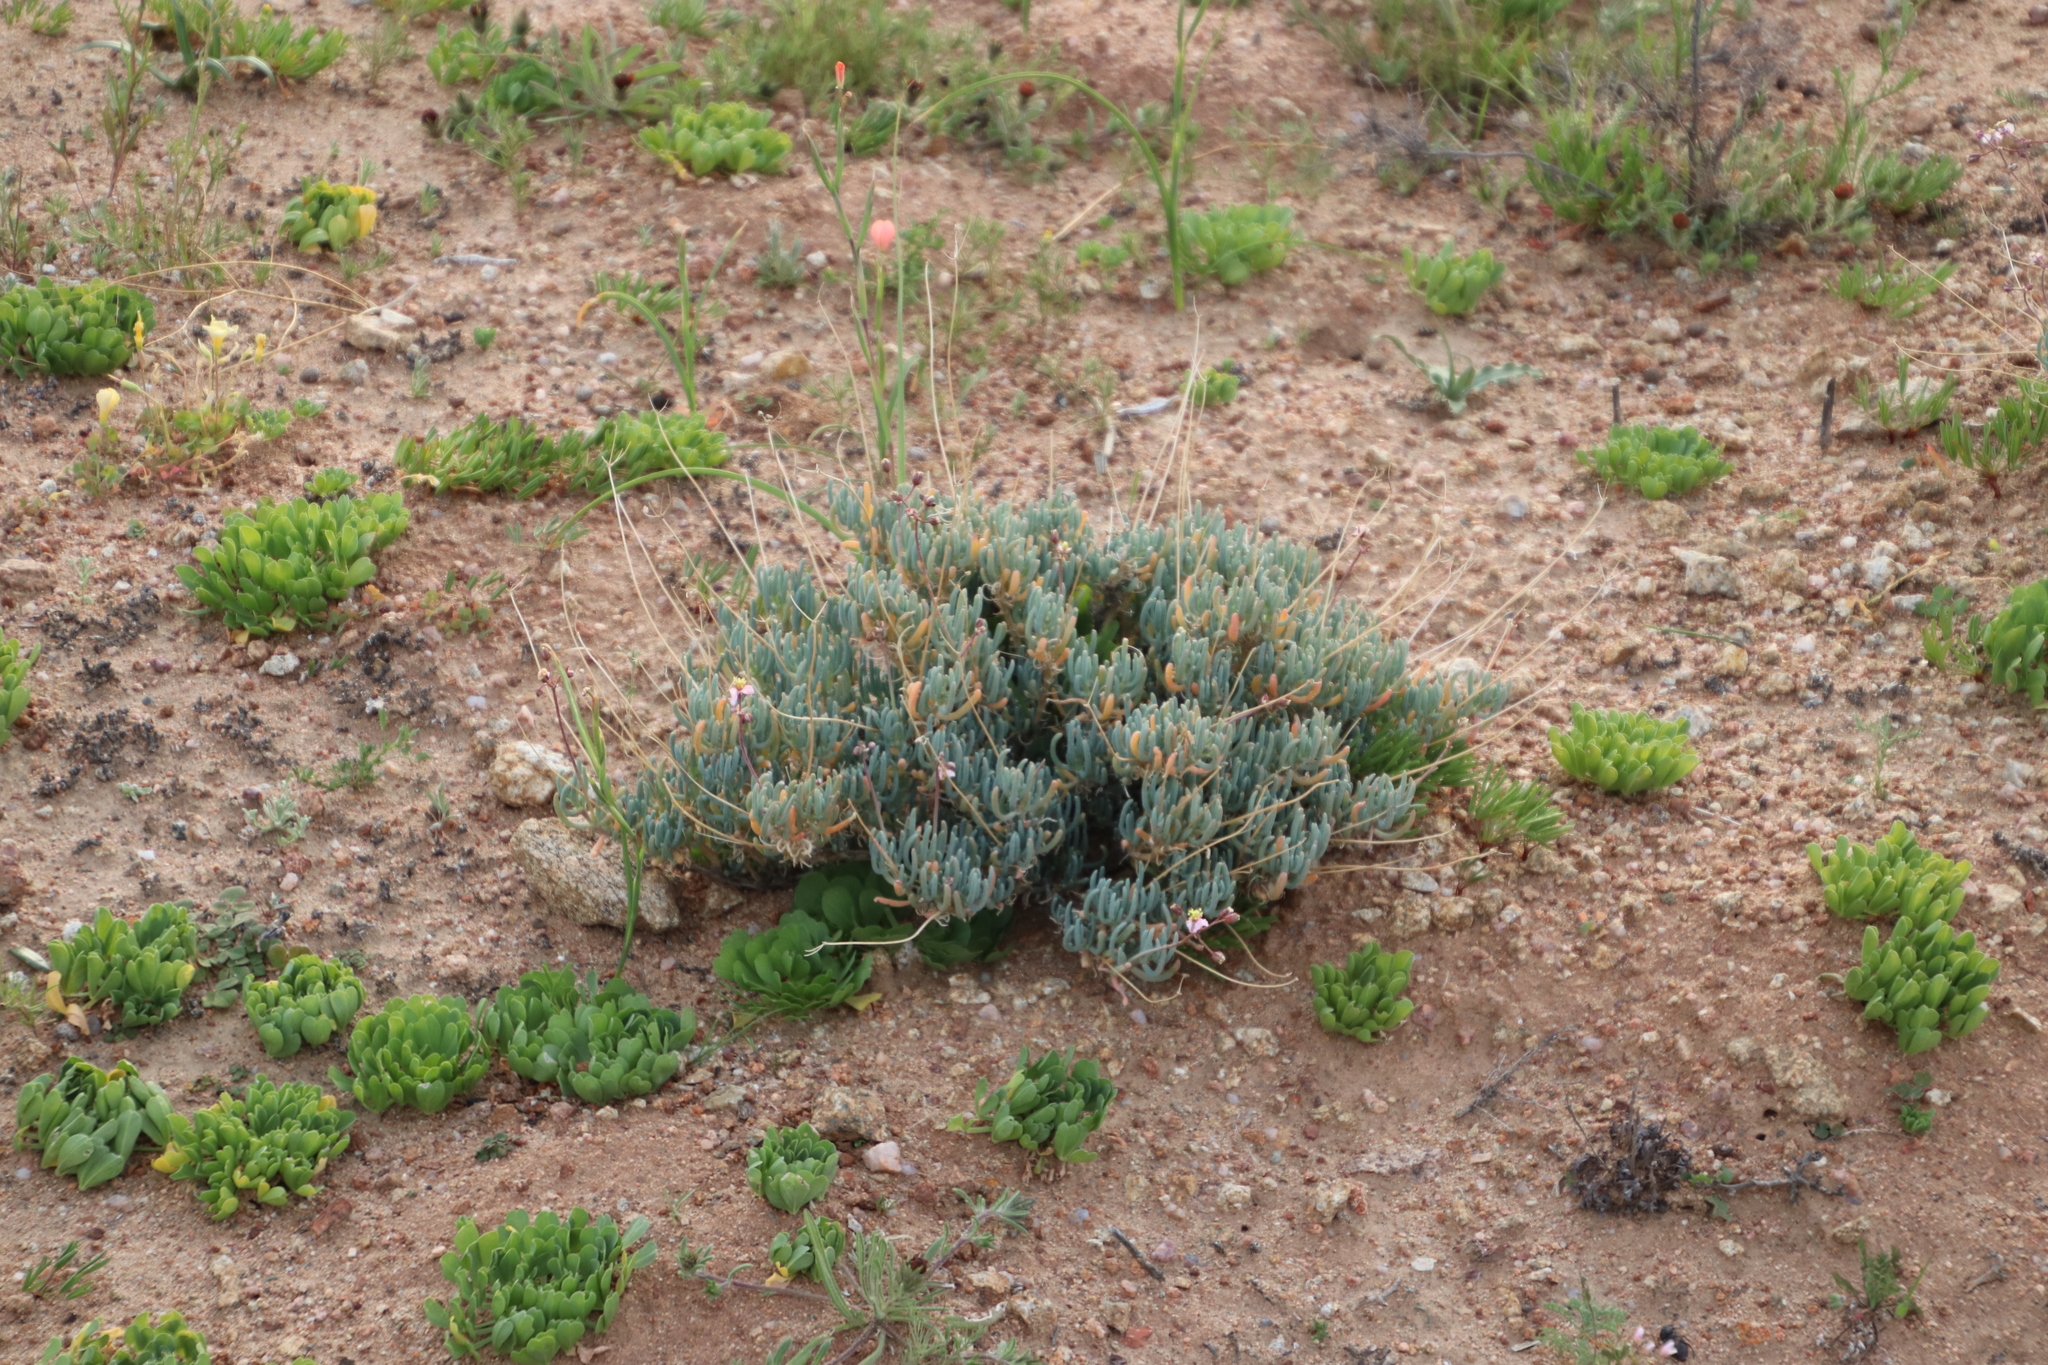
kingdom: Plantae
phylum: Tracheophyta
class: Magnoliopsida
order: Caryophyllales
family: Kewaceae
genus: Kewa
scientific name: Kewa salsoloides
